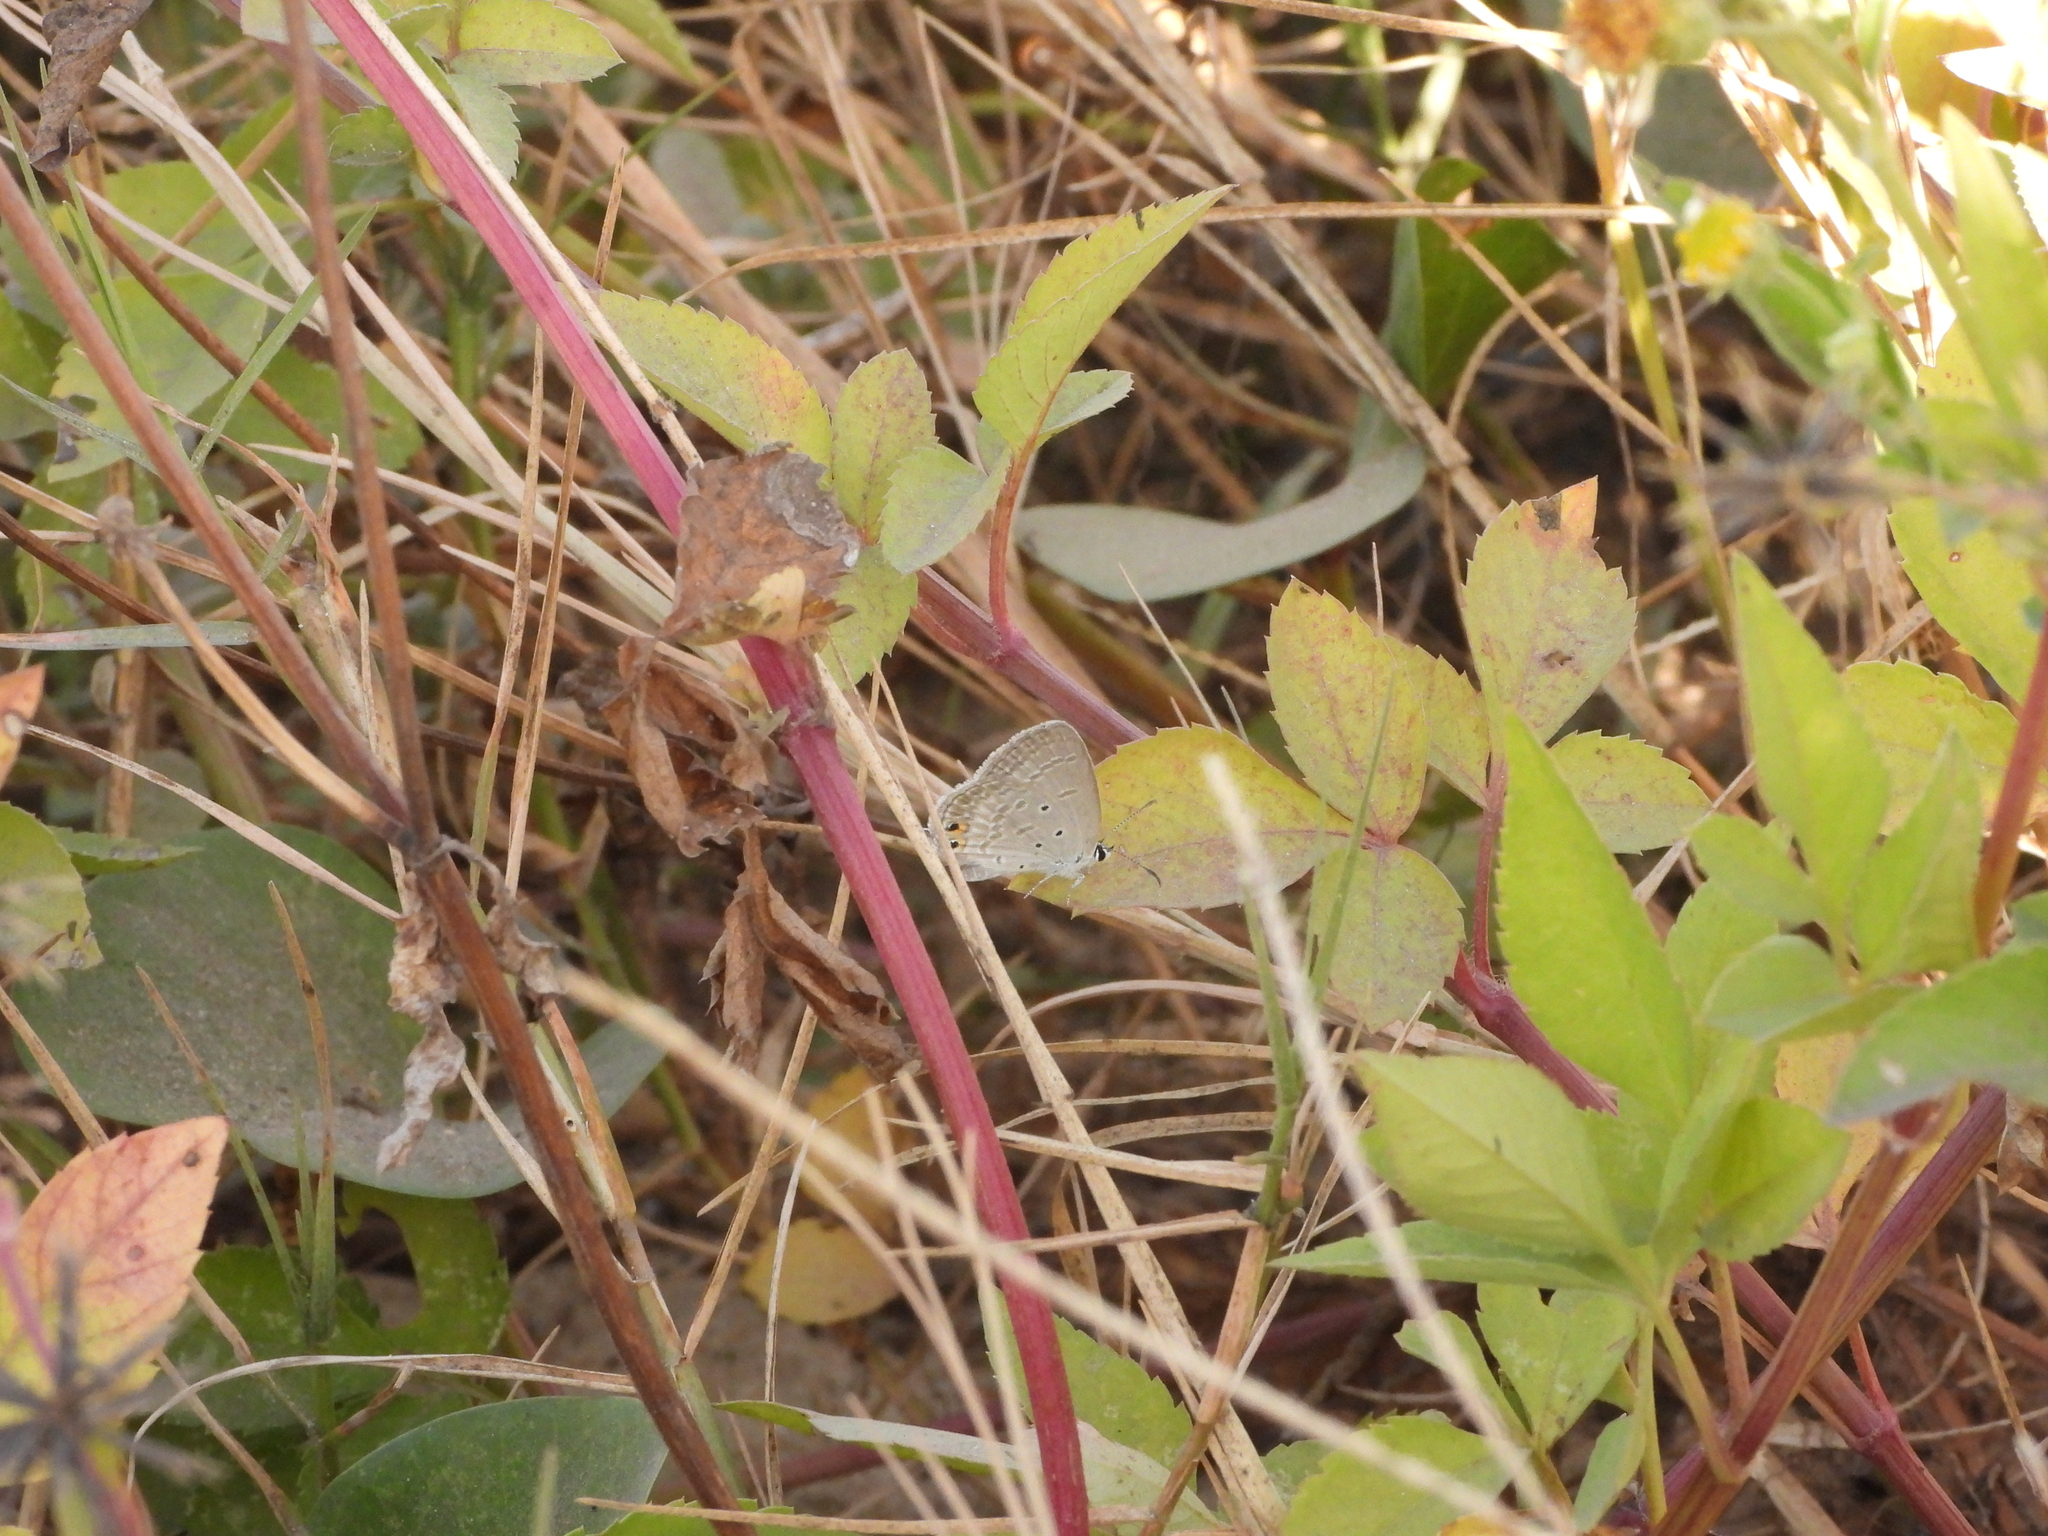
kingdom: Animalia
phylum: Arthropoda
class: Insecta
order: Lepidoptera
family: Lycaenidae
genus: Euchrysops
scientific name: Euchrysops cnejus
